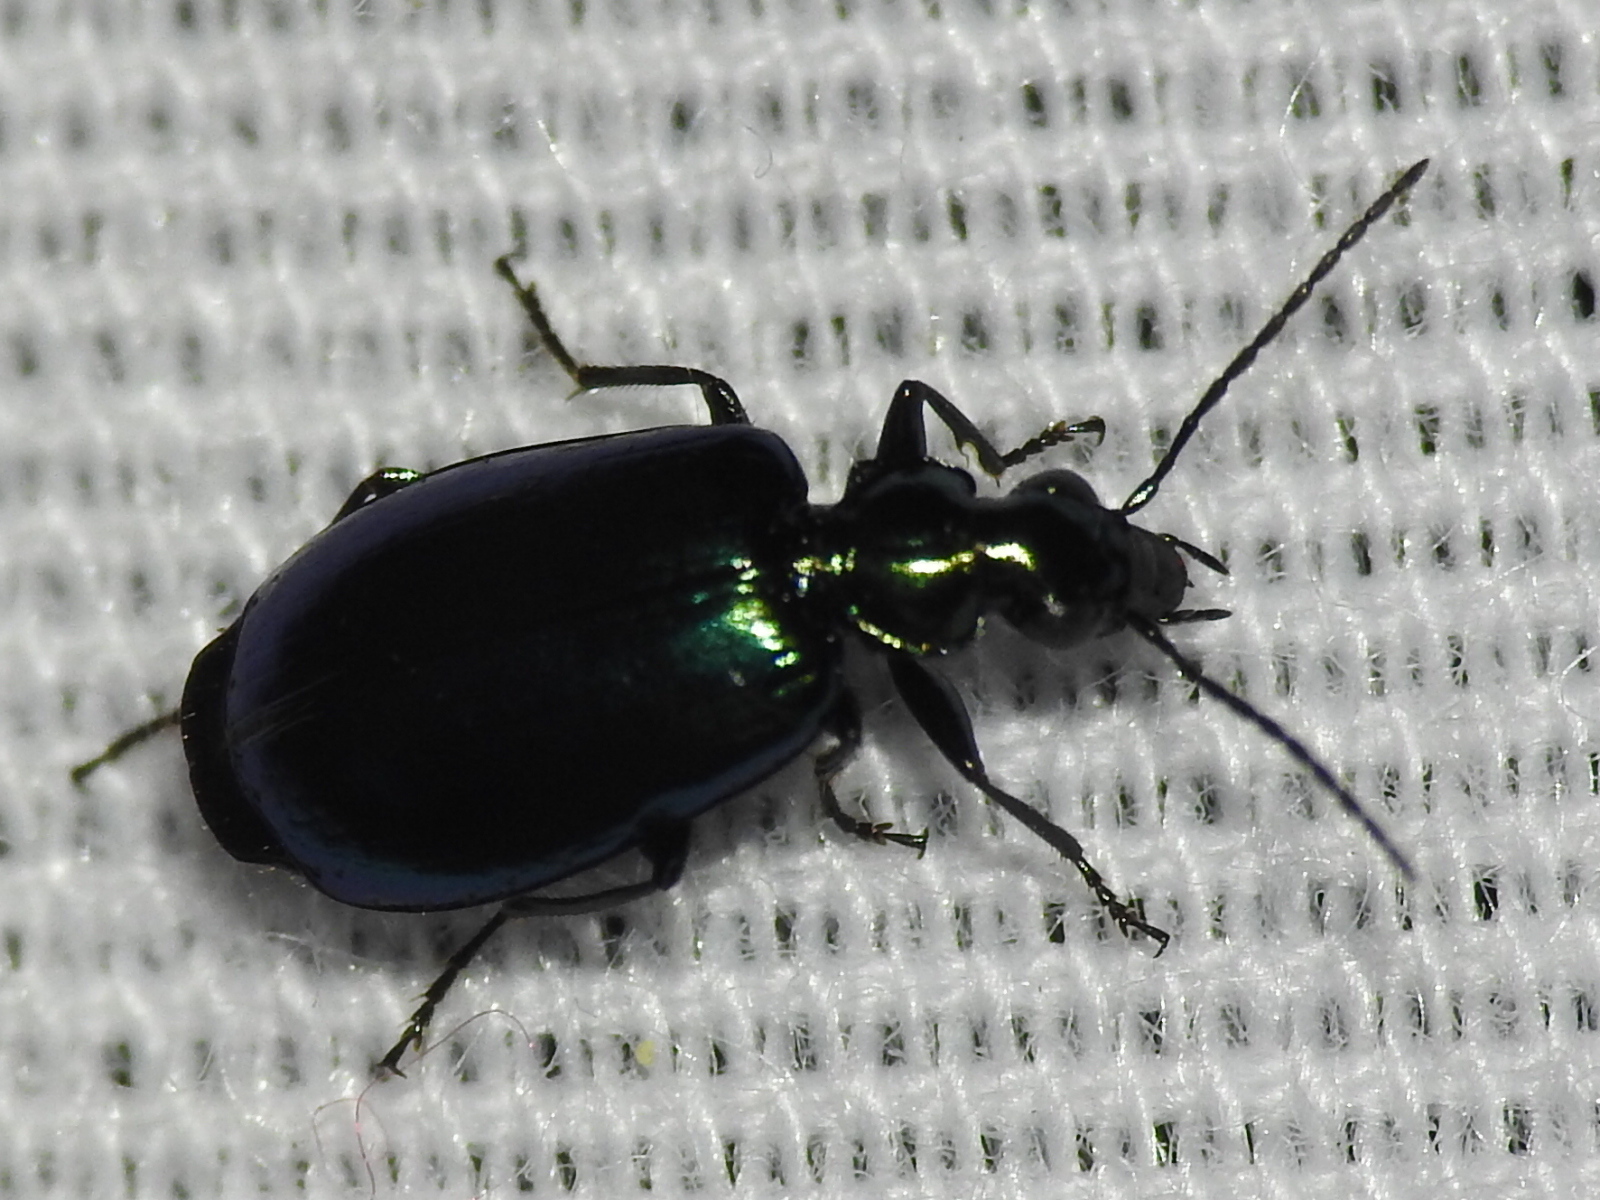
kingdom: Animalia
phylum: Arthropoda
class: Insecta
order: Coleoptera
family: Carabidae
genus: Lebia
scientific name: Lebia viridis
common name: Flower lebia beetle
